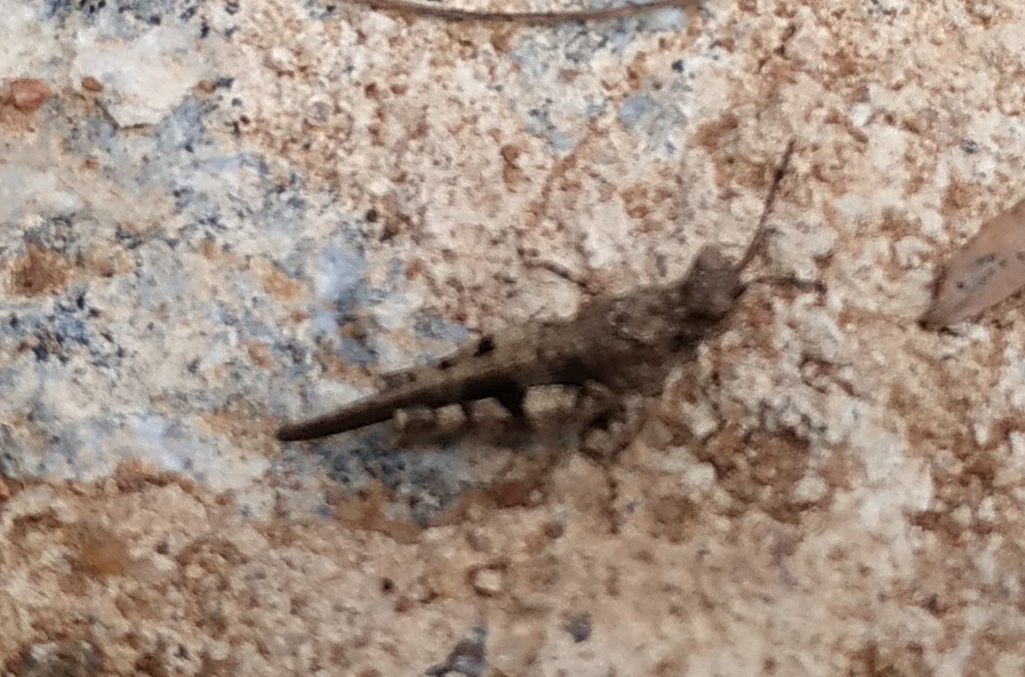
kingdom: Animalia
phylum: Arthropoda
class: Insecta
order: Orthoptera
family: Acrididae
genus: Trilophidia
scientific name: Trilophidia annulata
